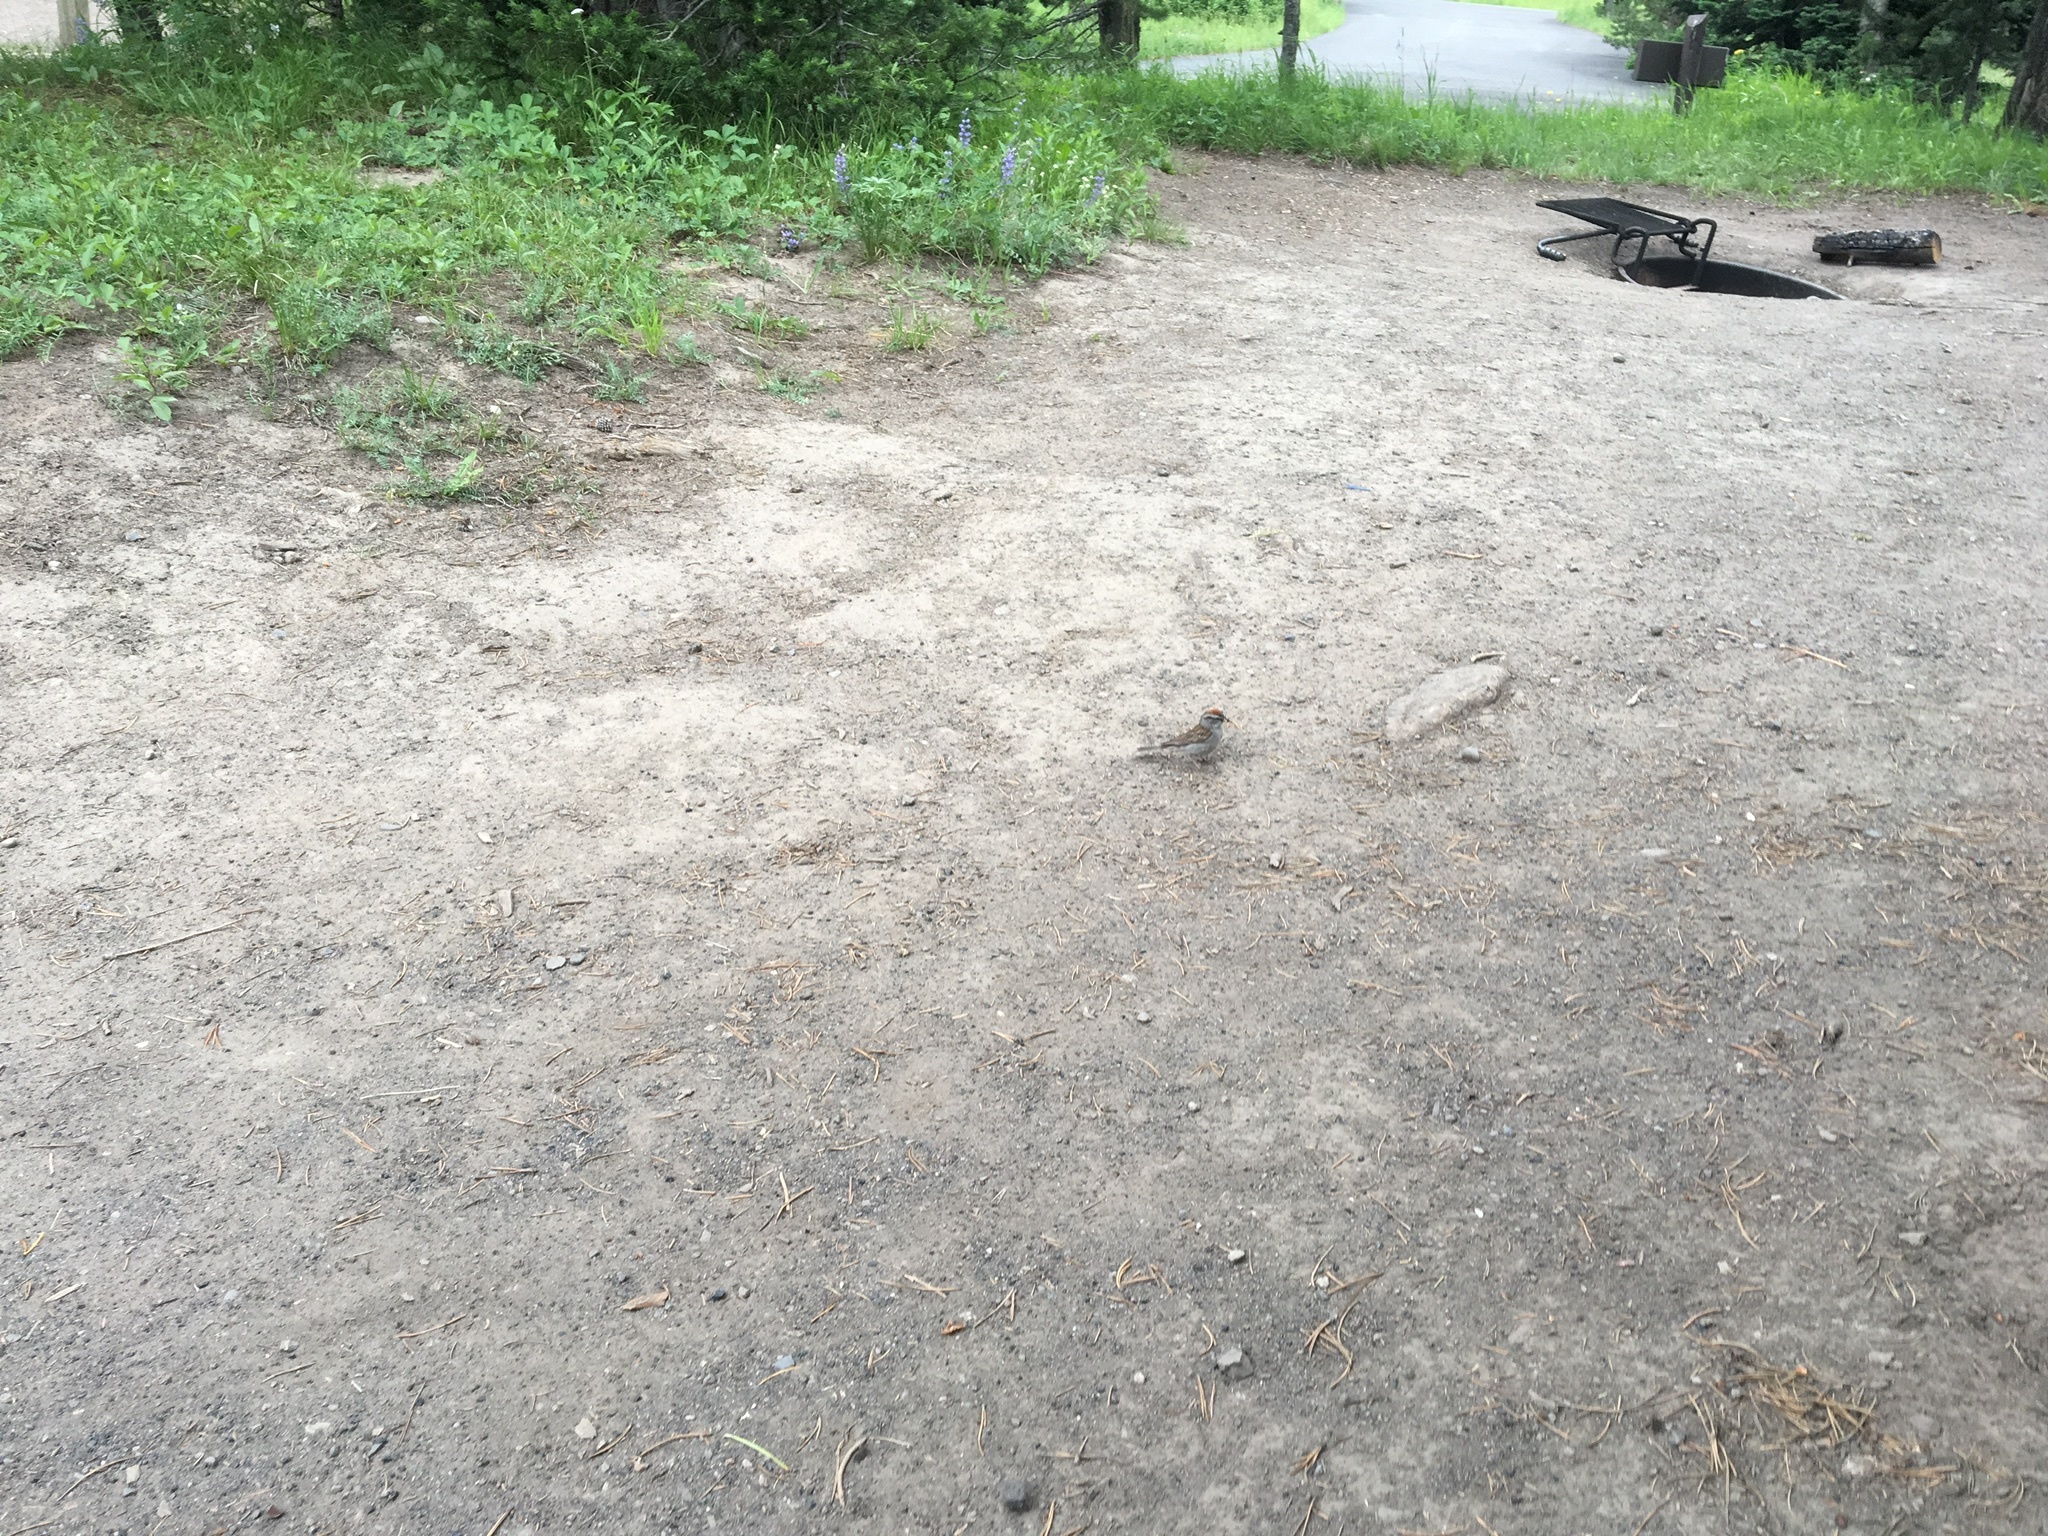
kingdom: Animalia
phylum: Chordata
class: Aves
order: Passeriformes
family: Passerellidae
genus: Spizella
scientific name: Spizella passerina
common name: Chipping sparrow
